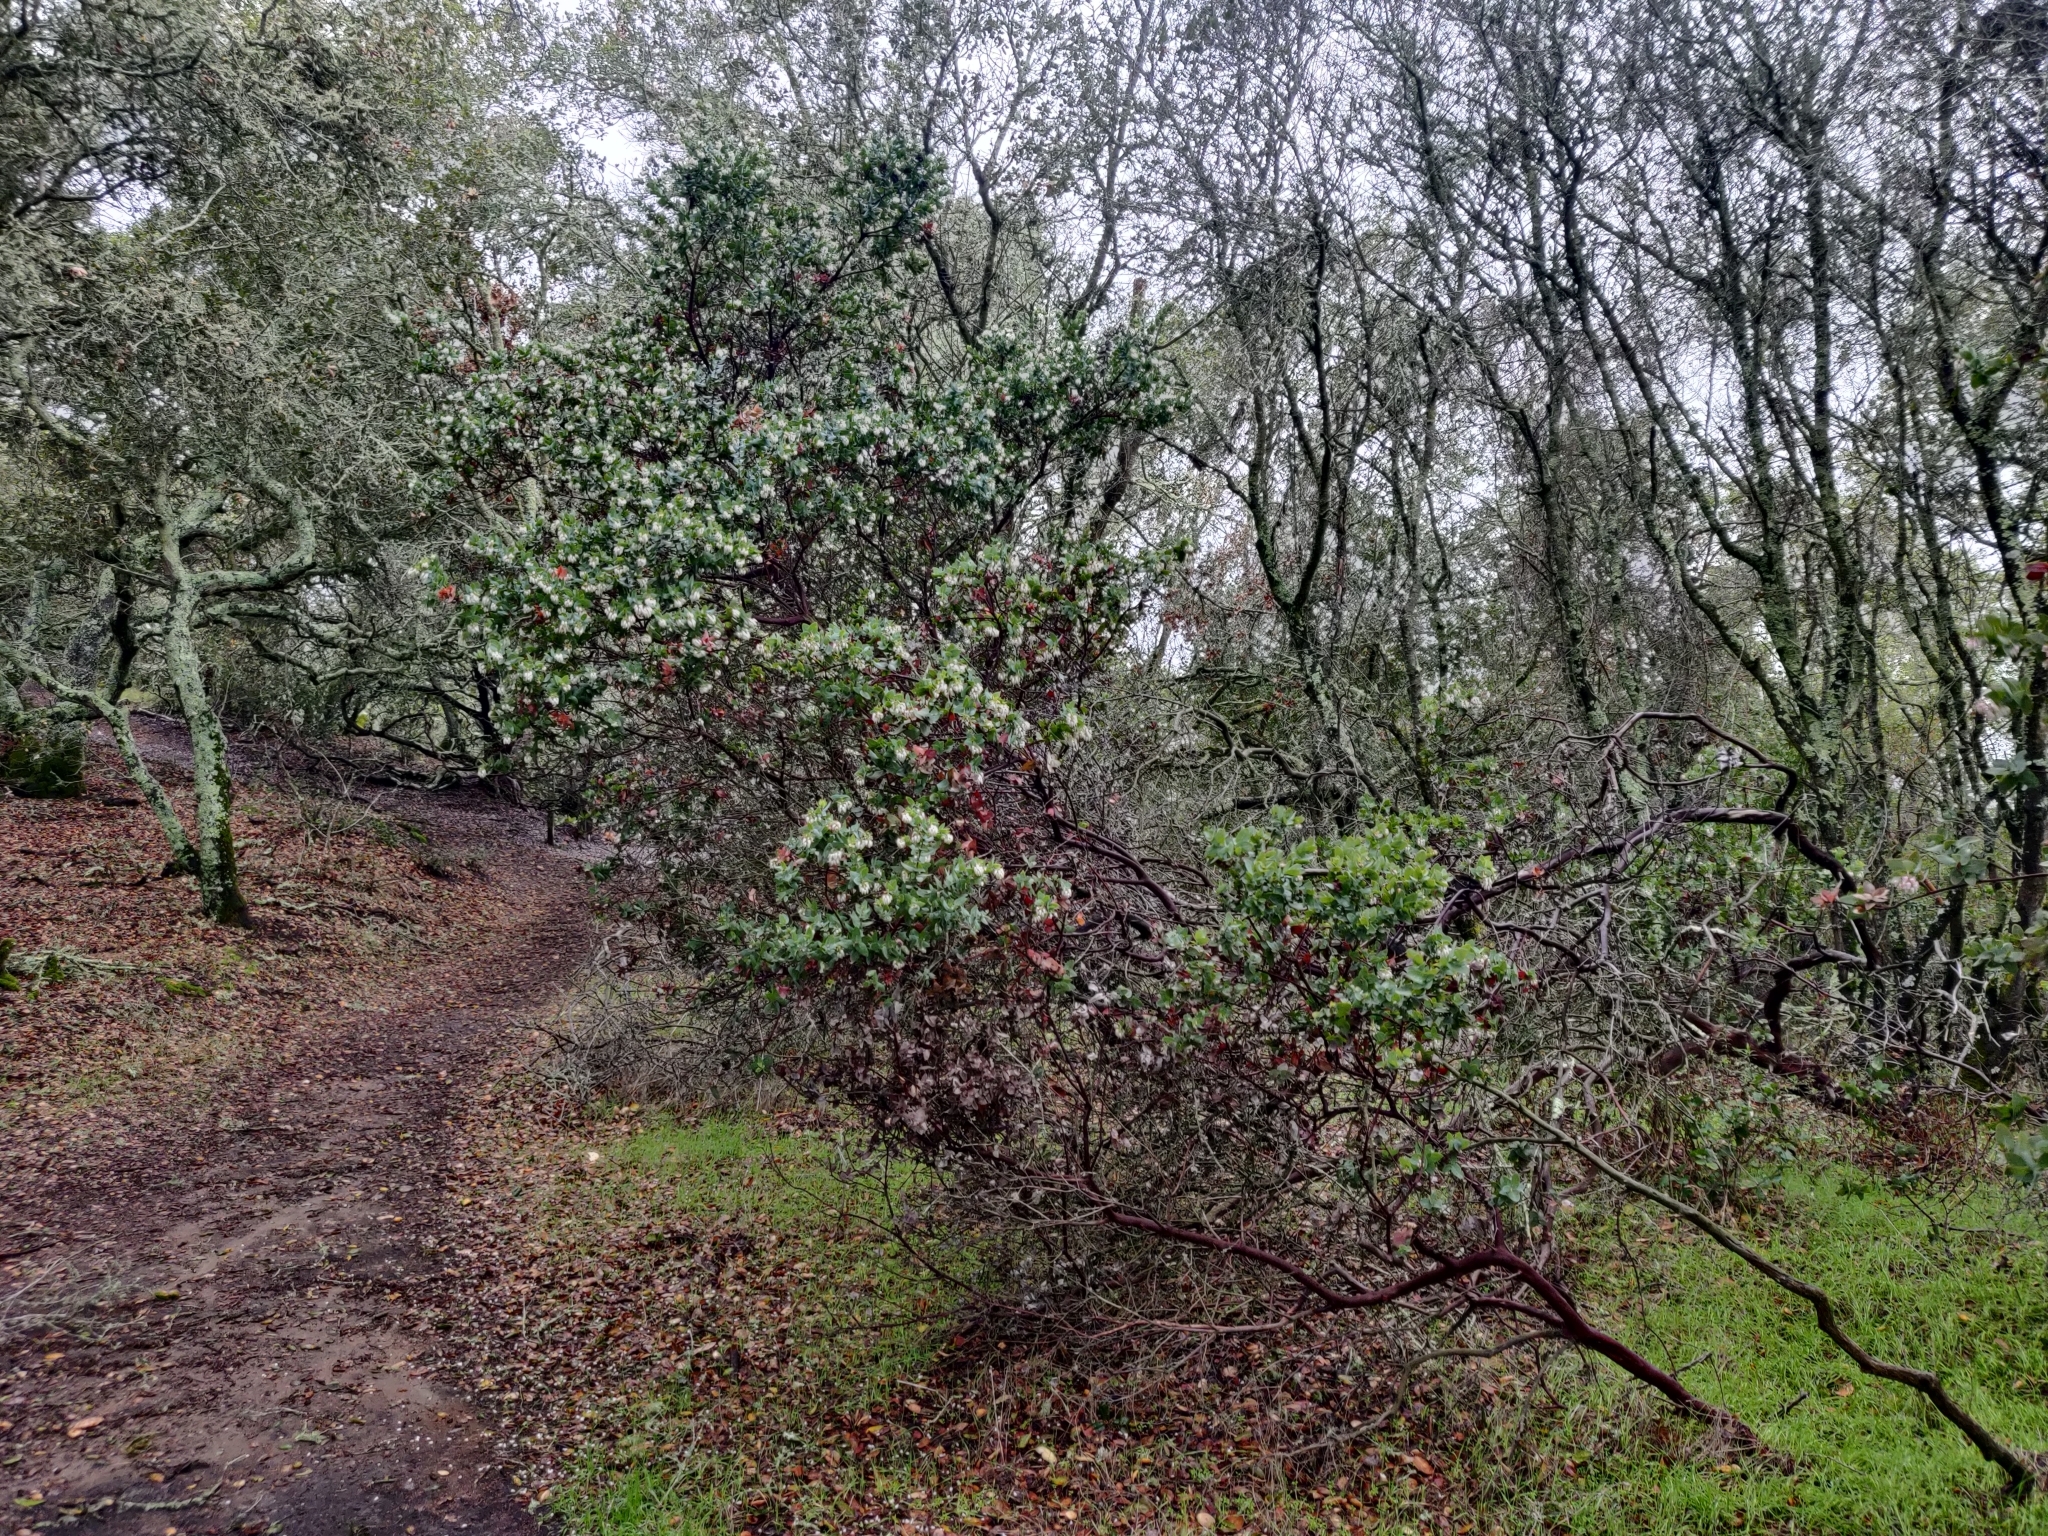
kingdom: Plantae
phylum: Tracheophyta
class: Magnoliopsida
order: Ericales
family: Ericaceae
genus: Arctostaphylos
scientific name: Arctostaphylos pallida
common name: Pallid manzanita
